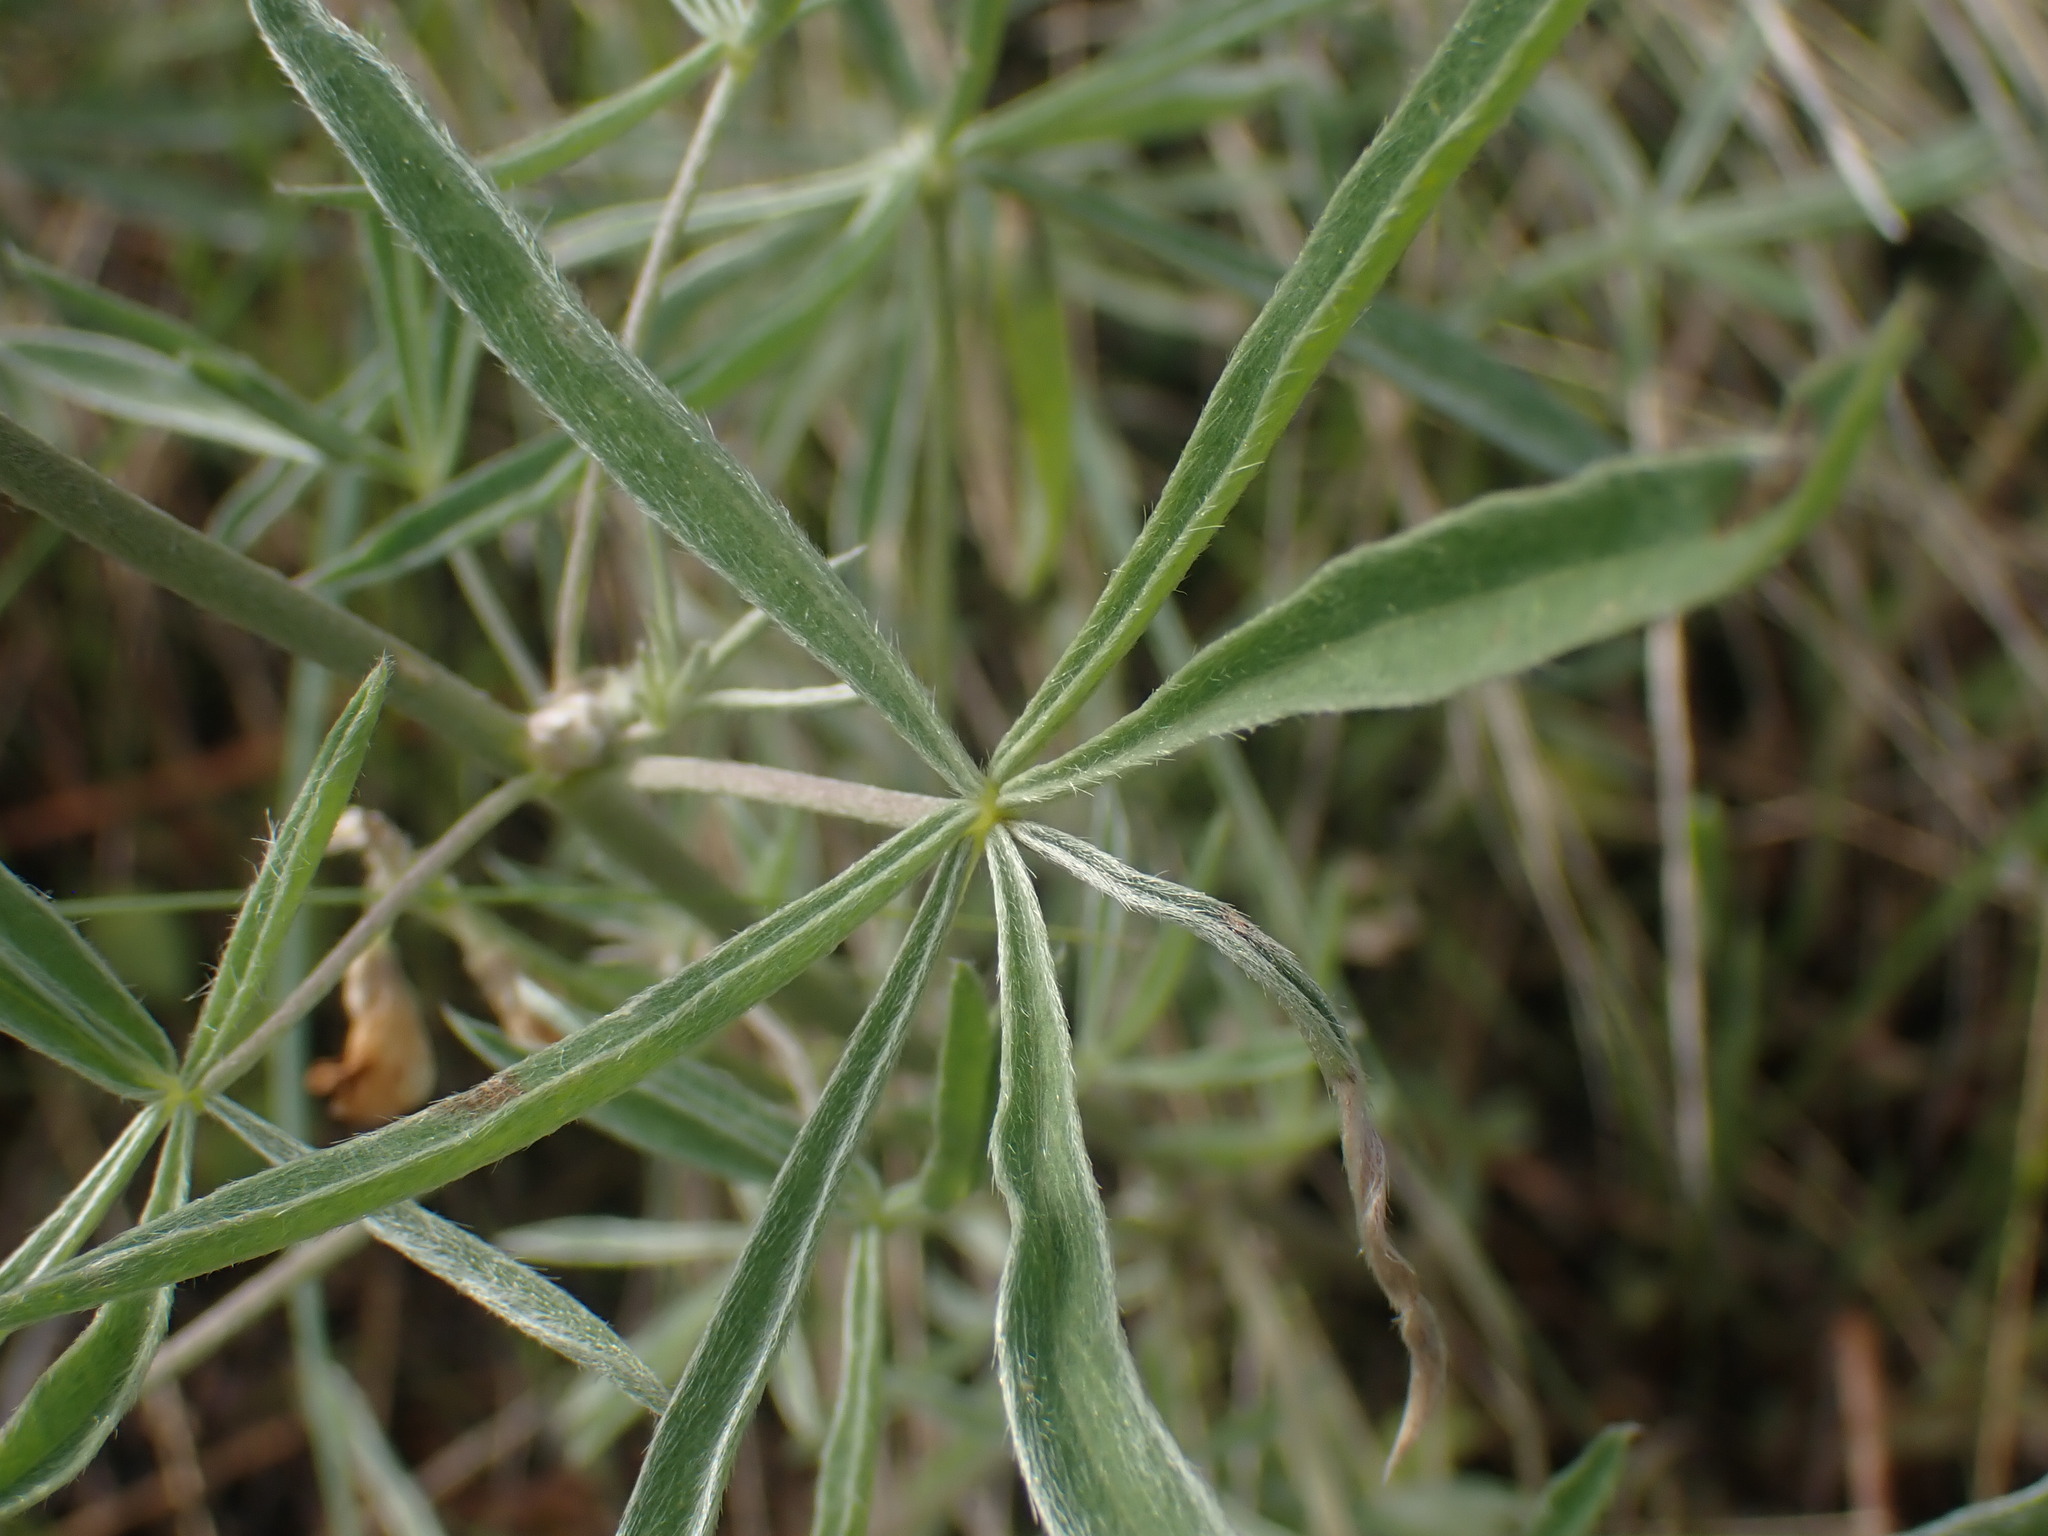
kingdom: Plantae
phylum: Tracheophyta
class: Magnoliopsida
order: Fabales
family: Fabaceae
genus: Lupinus
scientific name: Lupinus sulphureus
